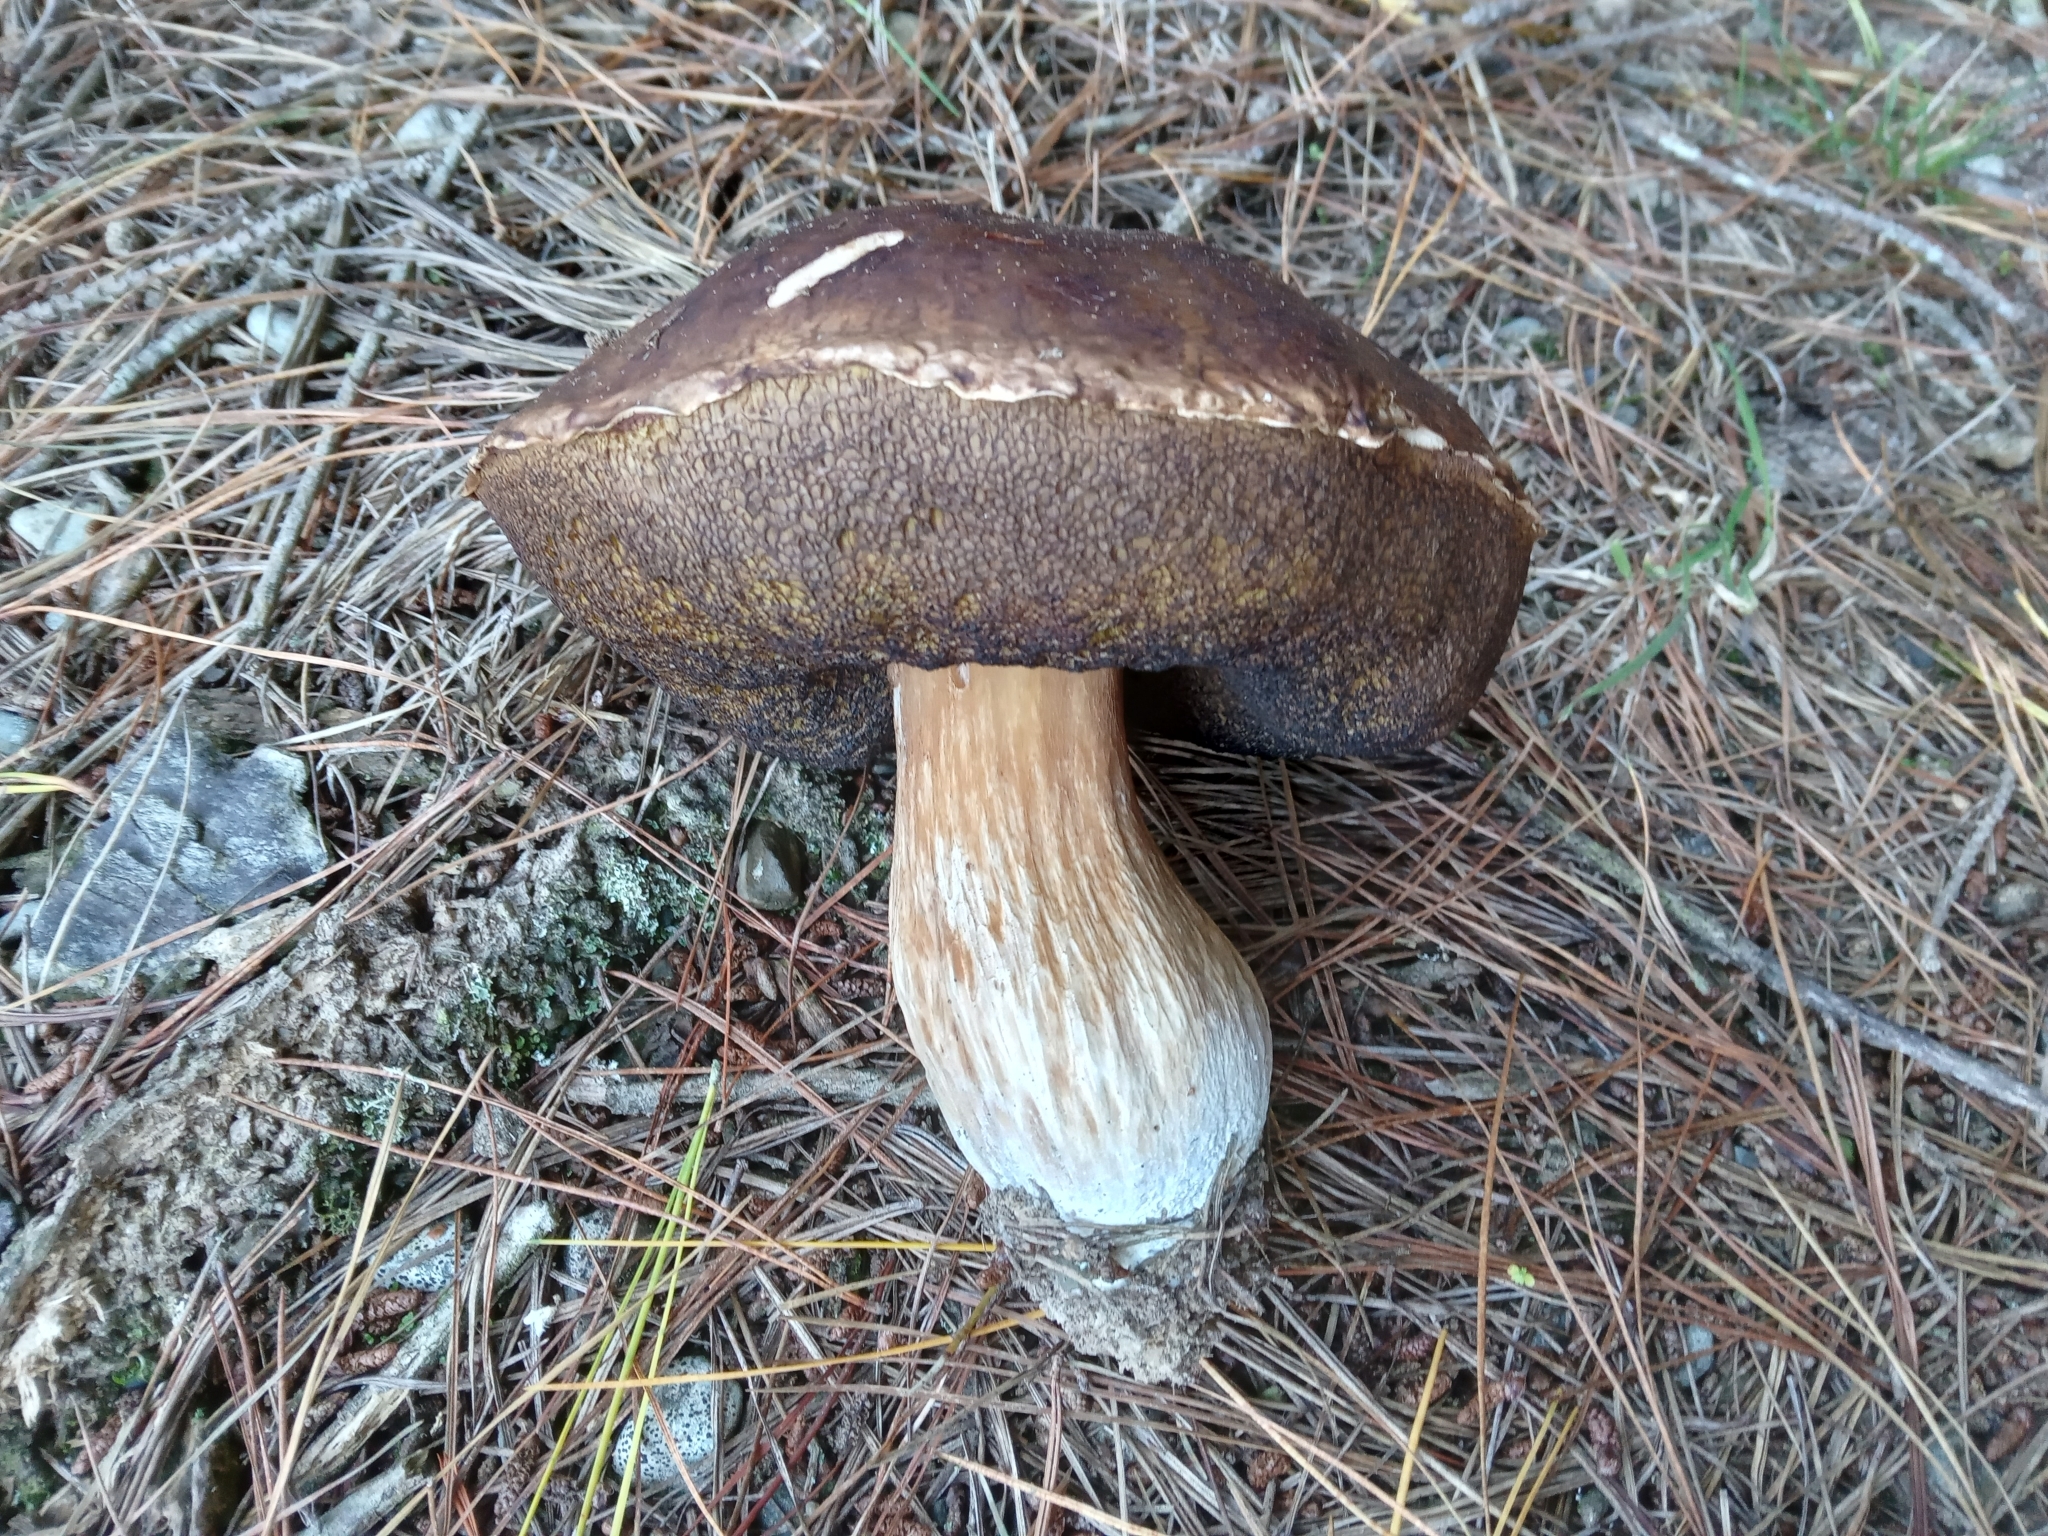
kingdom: Fungi
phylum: Basidiomycota
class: Agaricomycetes
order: Boletales
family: Boletaceae
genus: Boletus
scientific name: Boletus edulis
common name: Cep
